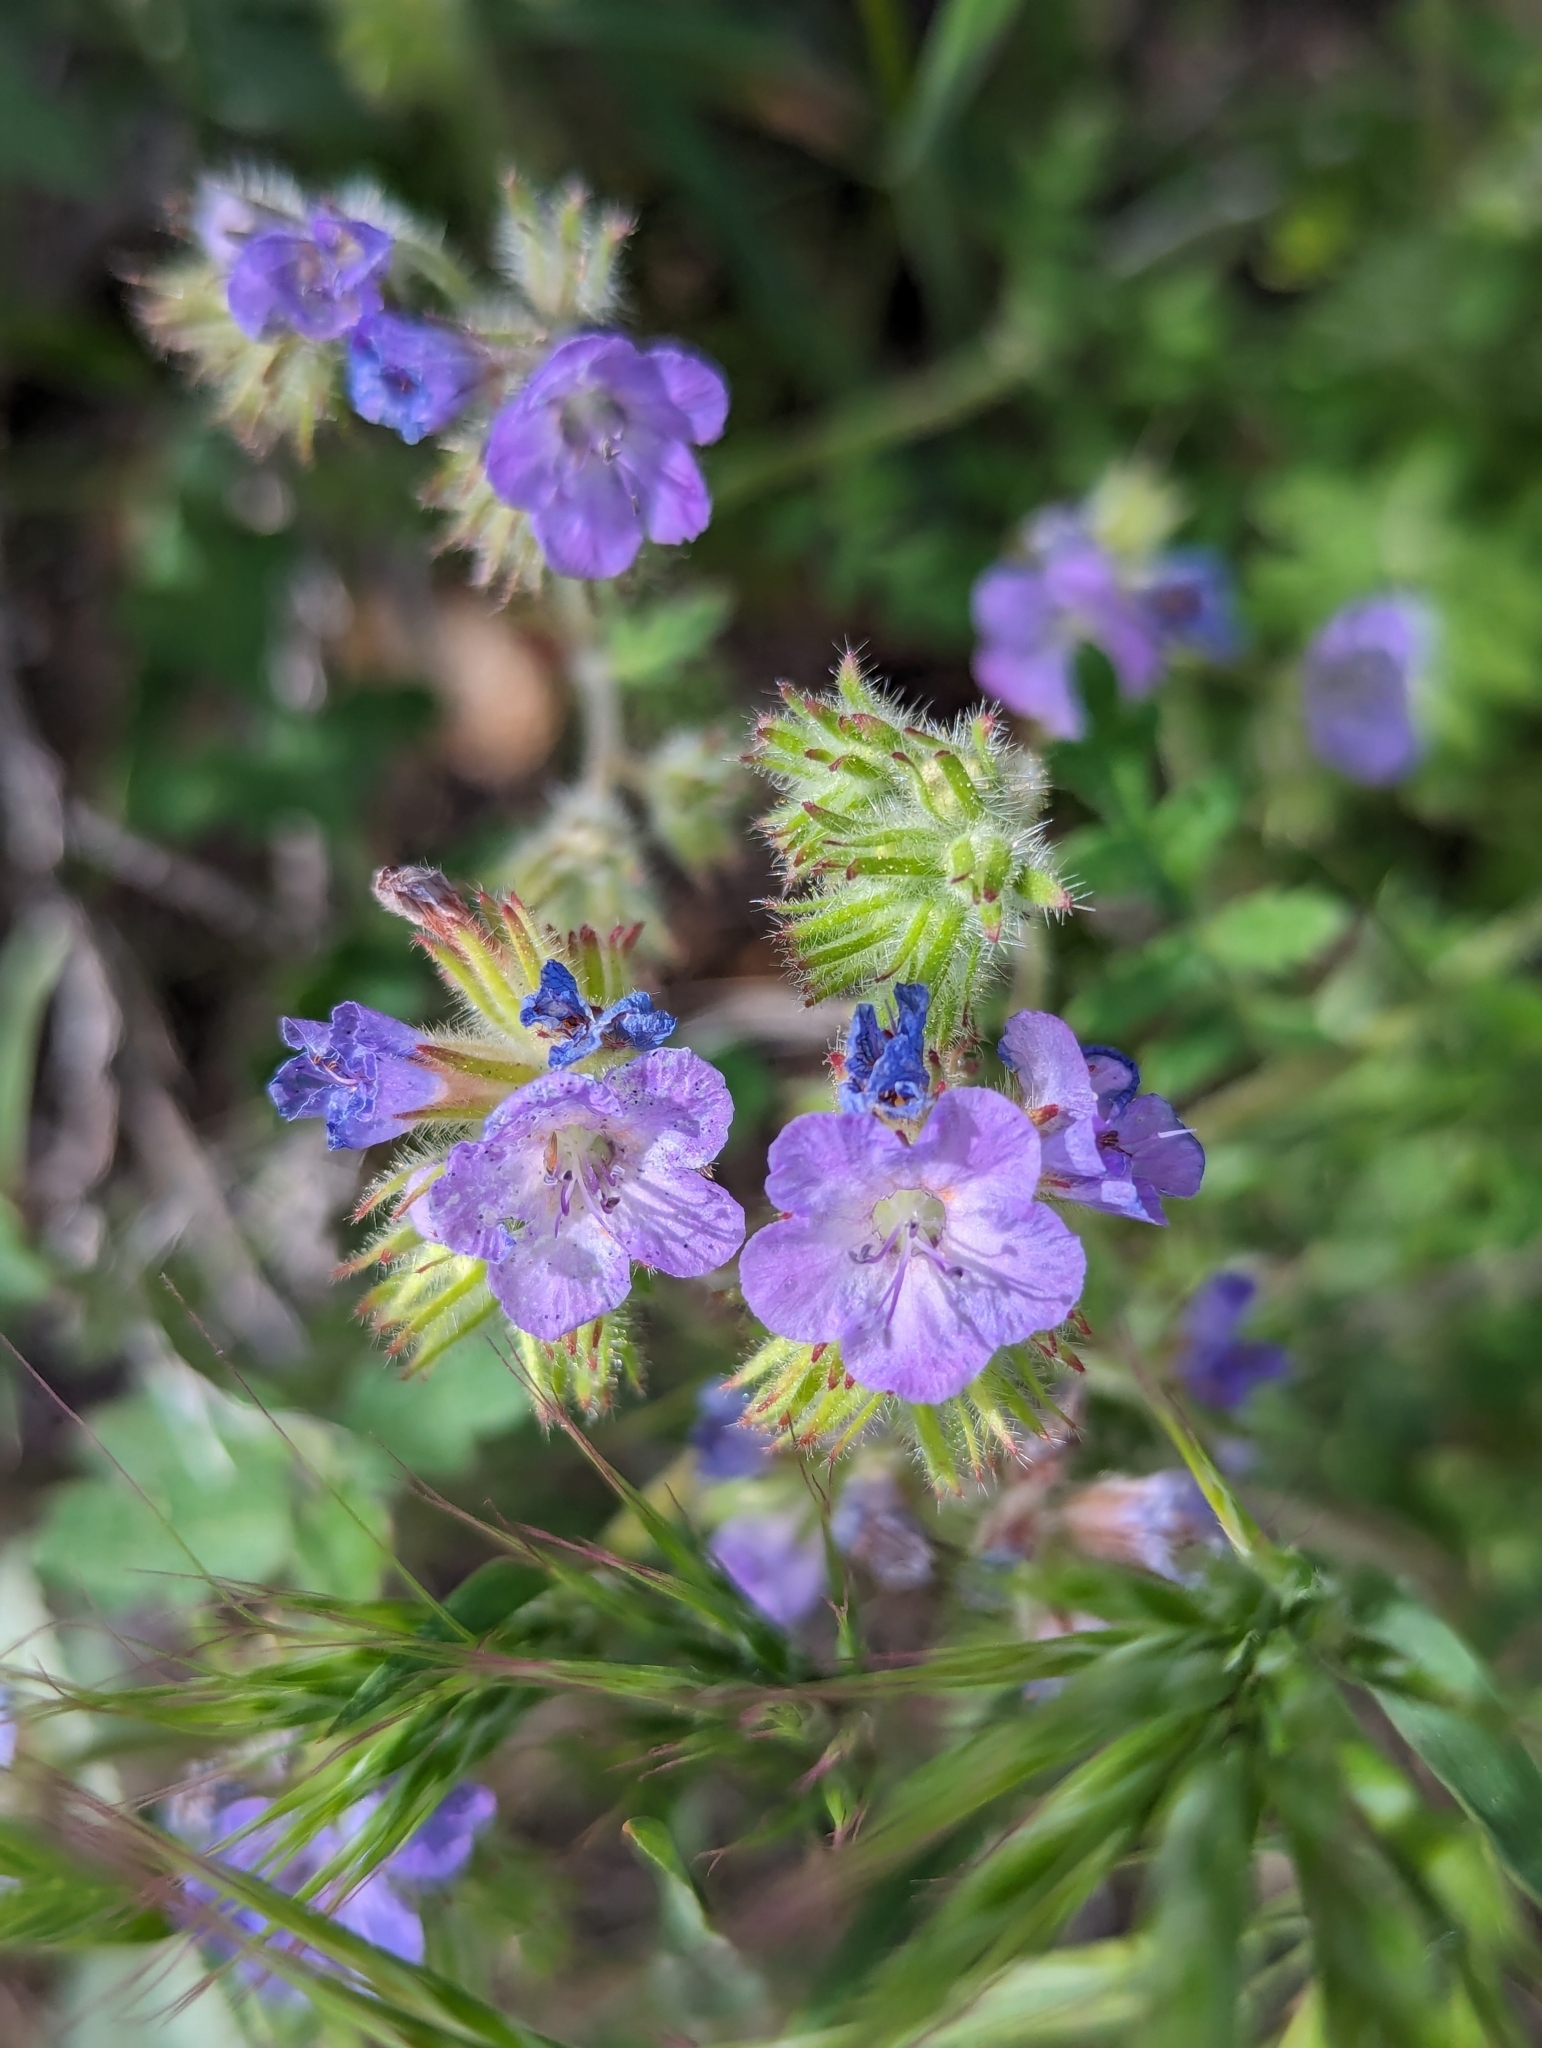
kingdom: Plantae
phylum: Tracheophyta
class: Magnoliopsida
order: Boraginales
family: Hydrophyllaceae
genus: Phacelia
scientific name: Phacelia gentryi
